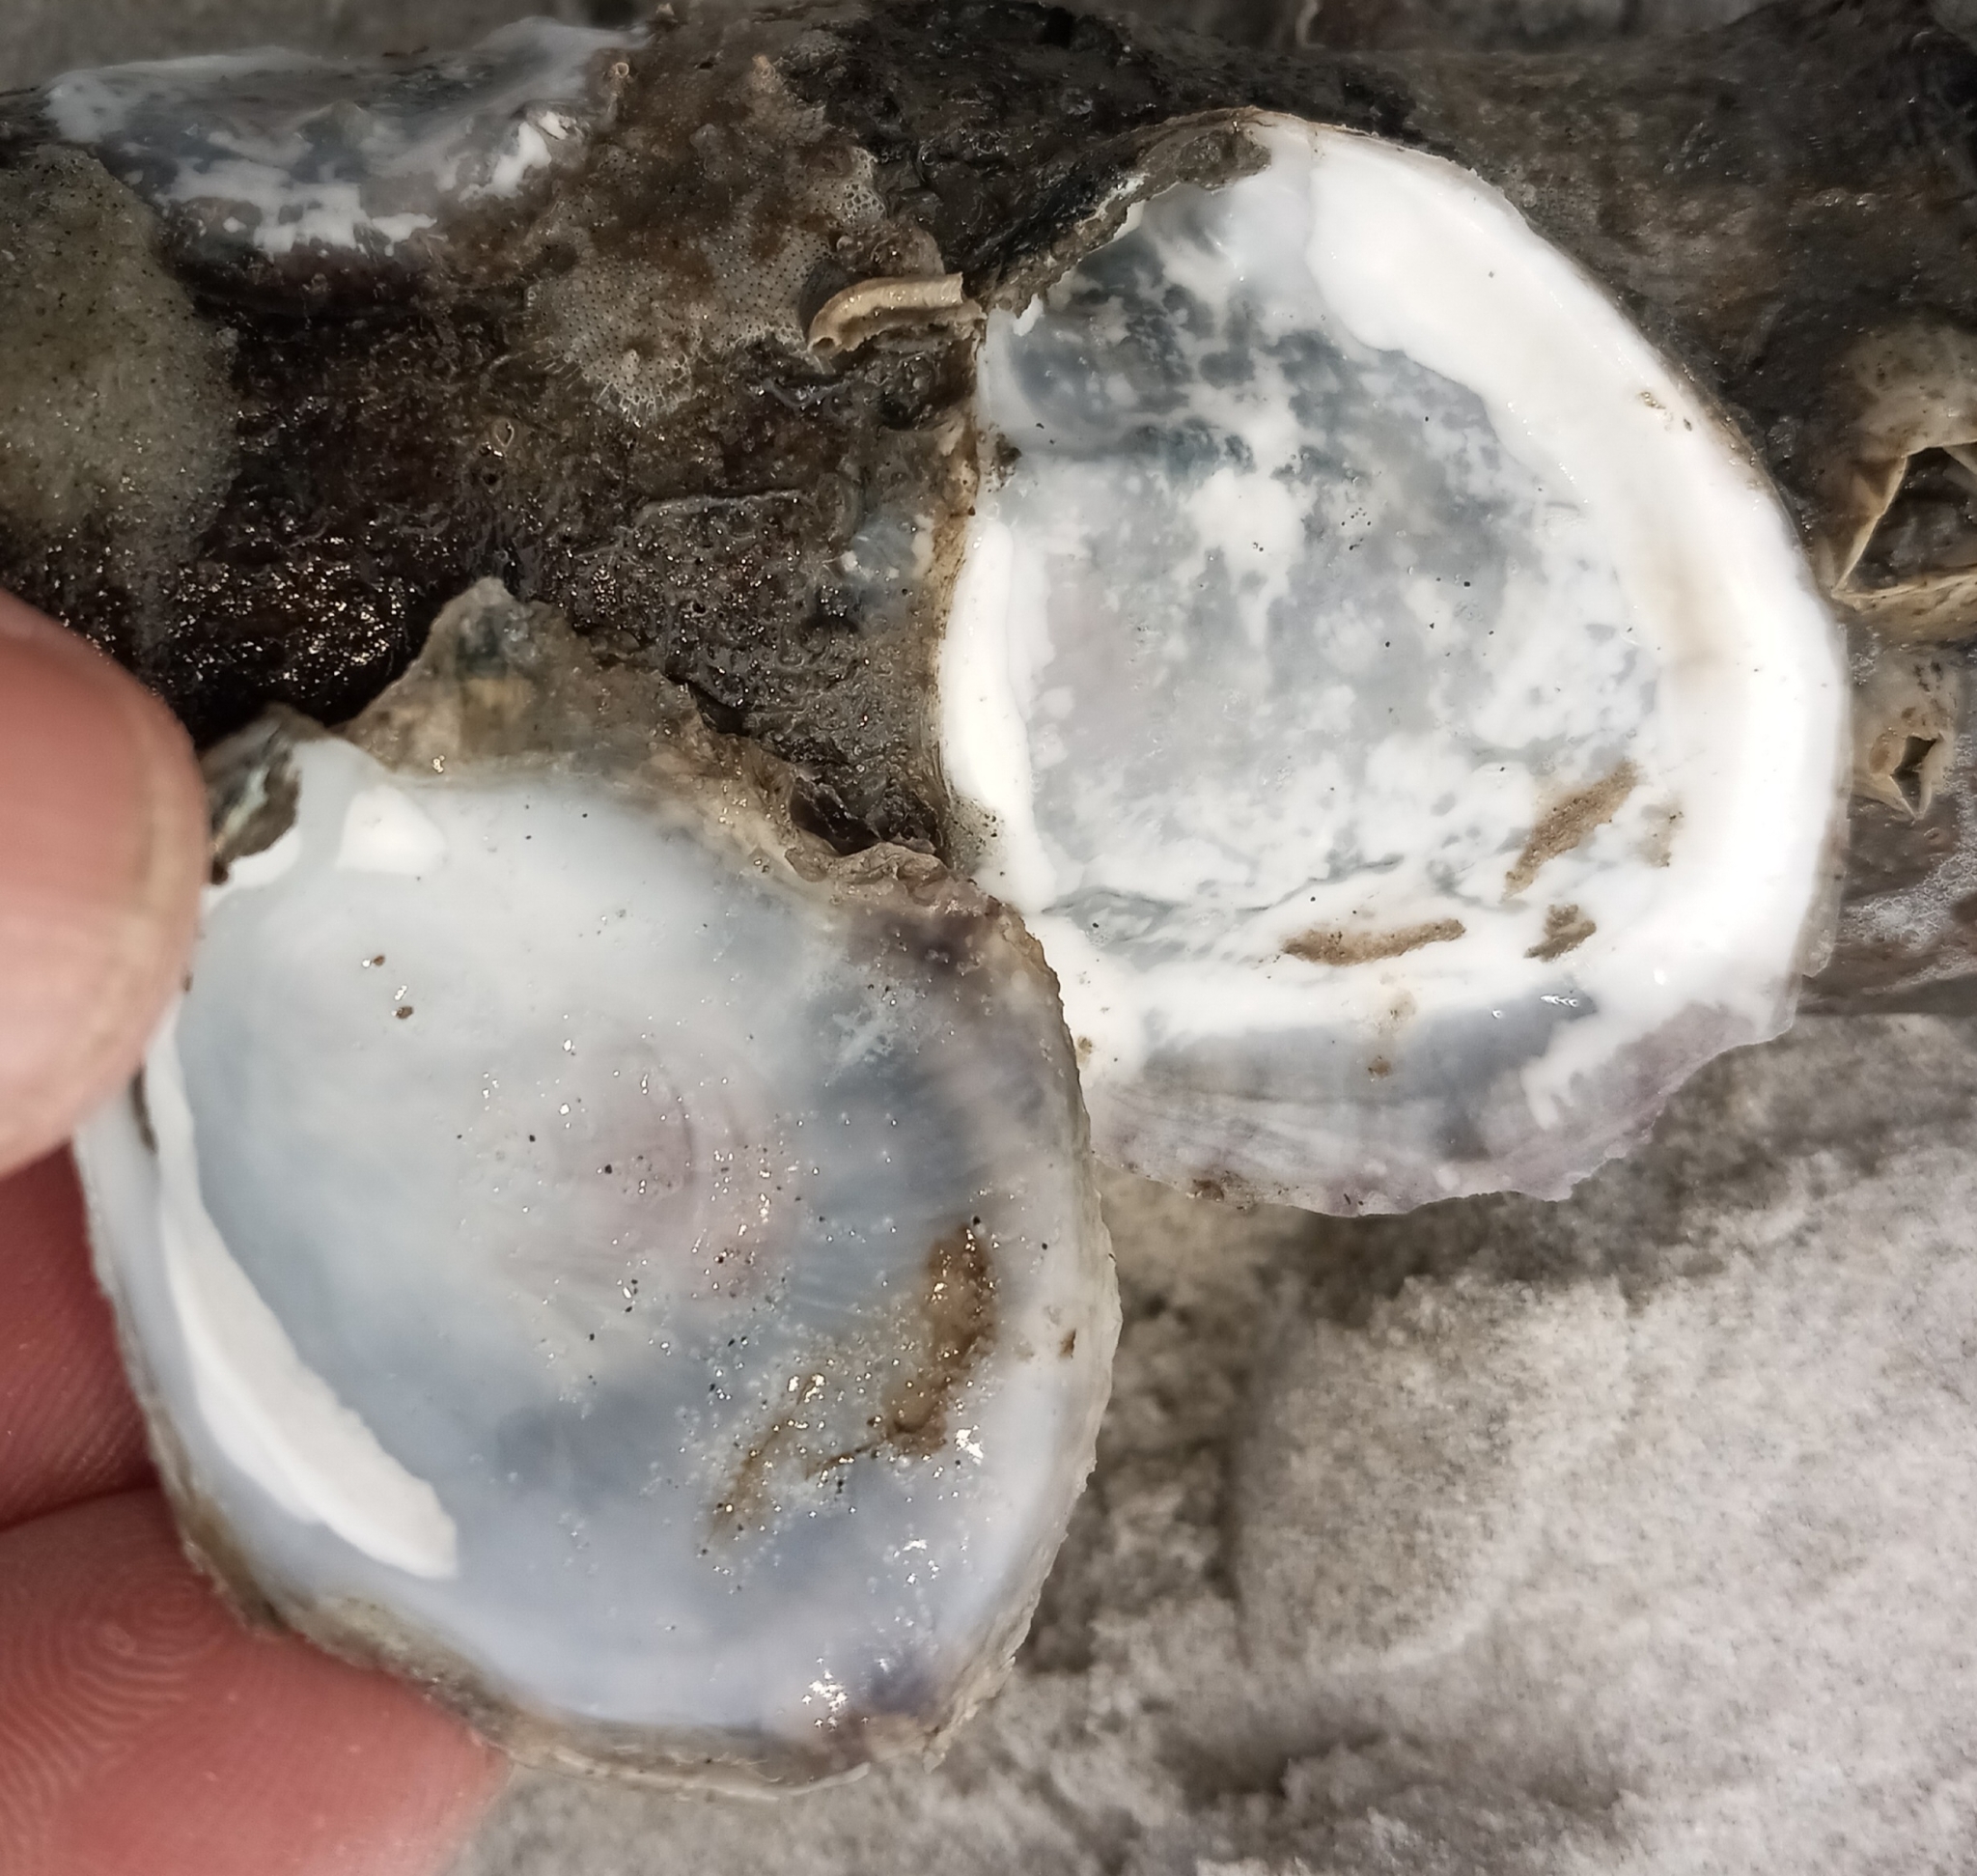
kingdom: Animalia
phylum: Mollusca
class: Bivalvia
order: Ostreida
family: Ostreidae
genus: Crassostrea
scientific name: Crassostrea virginica
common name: American oyster
